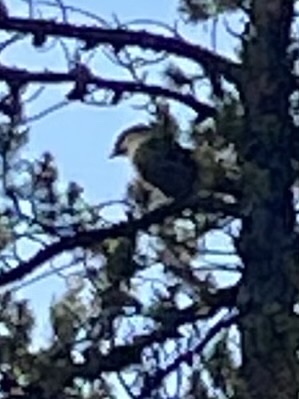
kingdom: Animalia
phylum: Chordata
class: Aves
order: Passeriformes
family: Corvidae
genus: Perisoreus
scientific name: Perisoreus canadensis
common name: Gray jay
